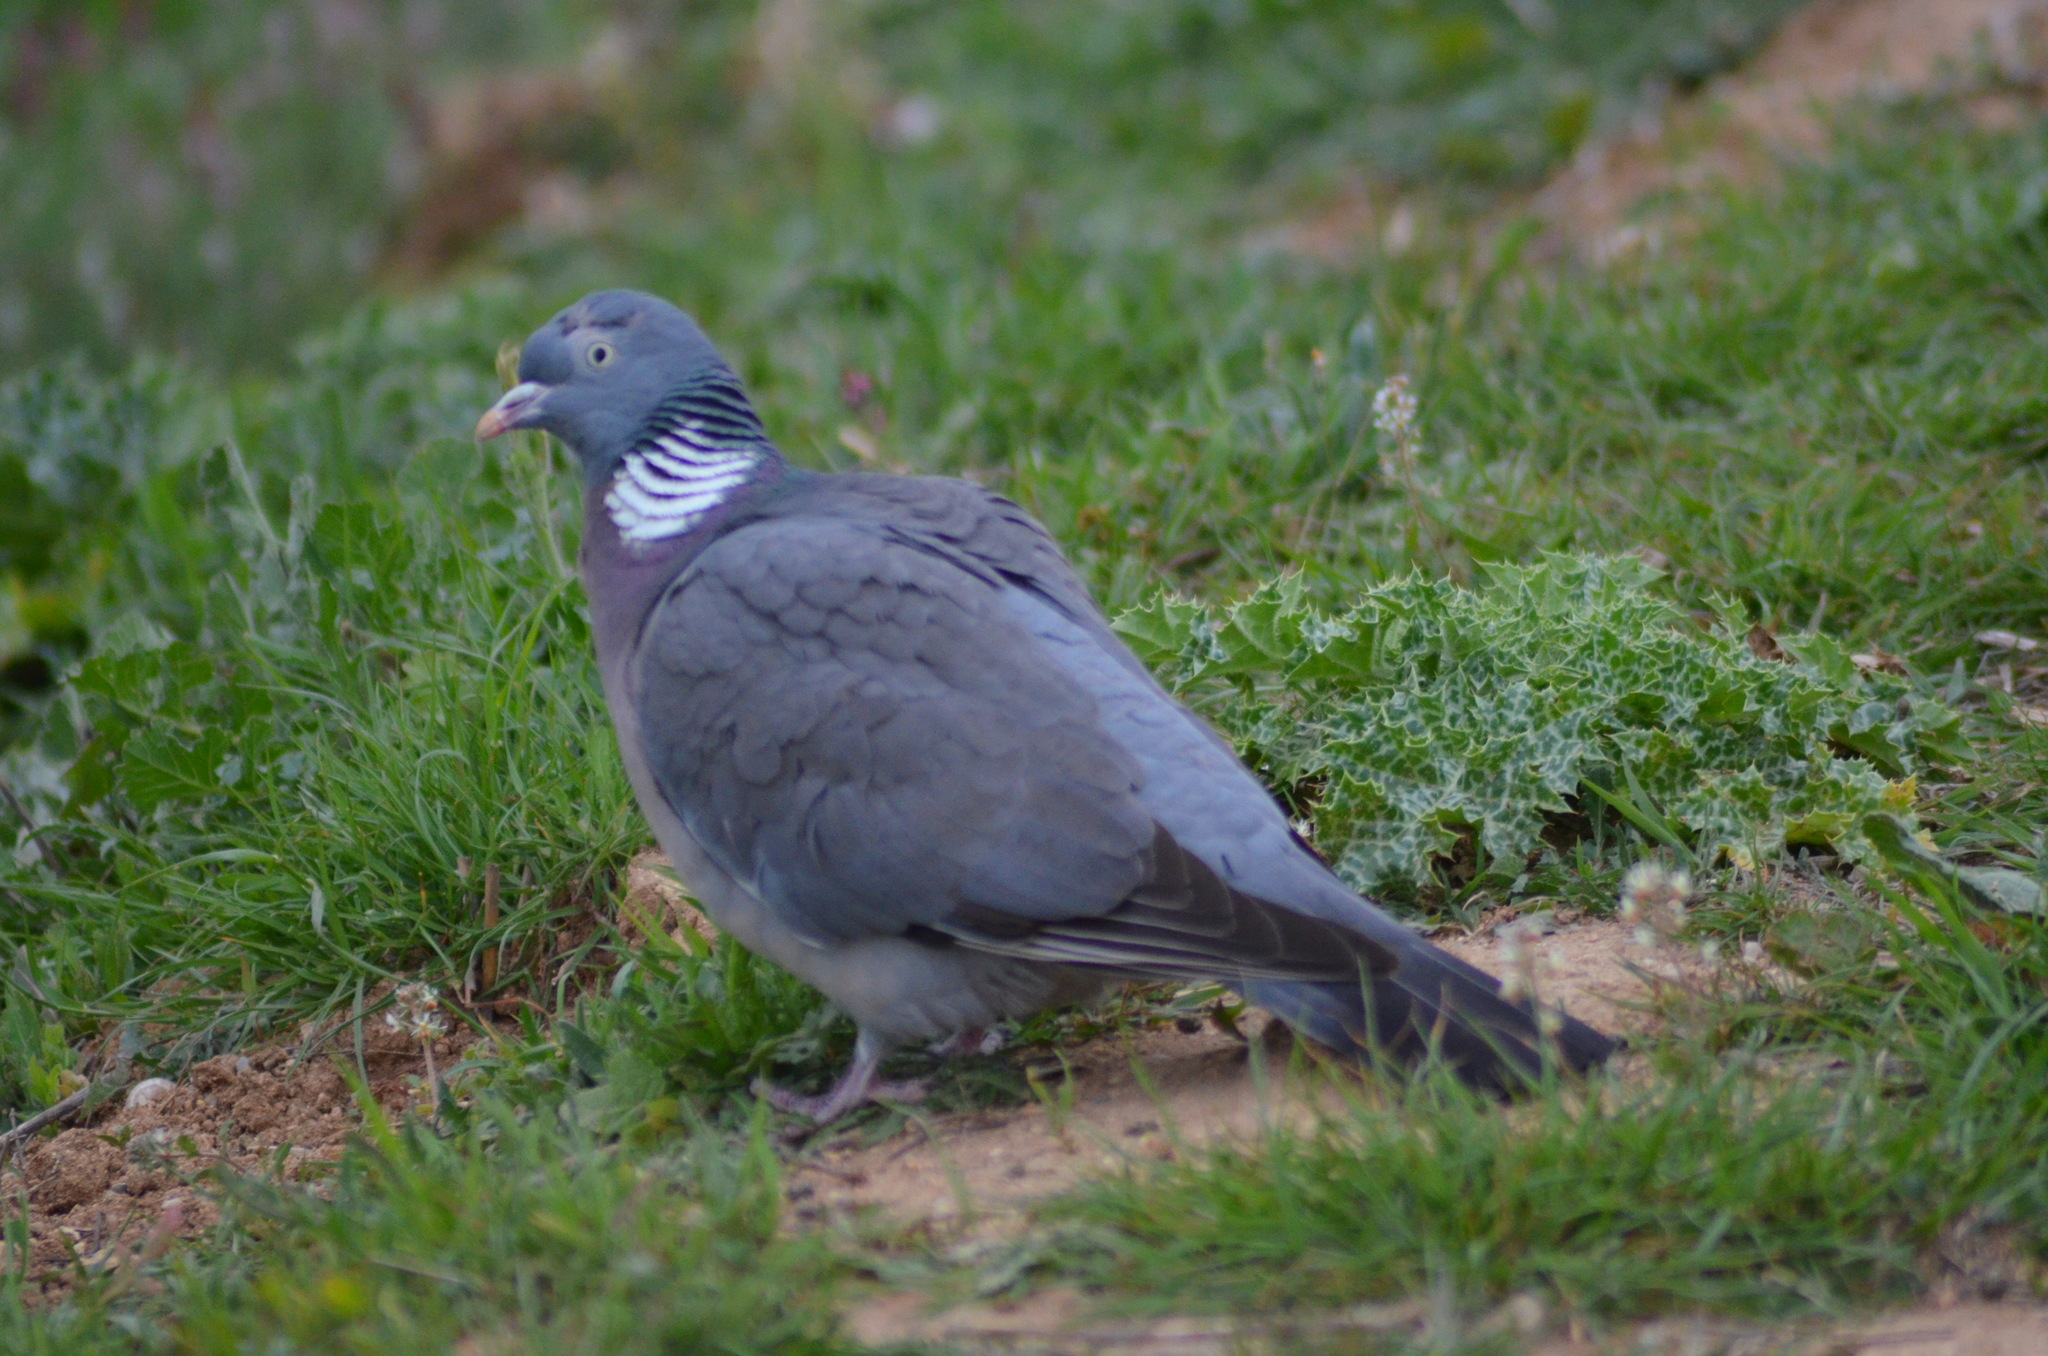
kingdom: Animalia
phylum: Chordata
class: Aves
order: Columbiformes
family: Columbidae
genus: Columba
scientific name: Columba palumbus
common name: Common wood pigeon
